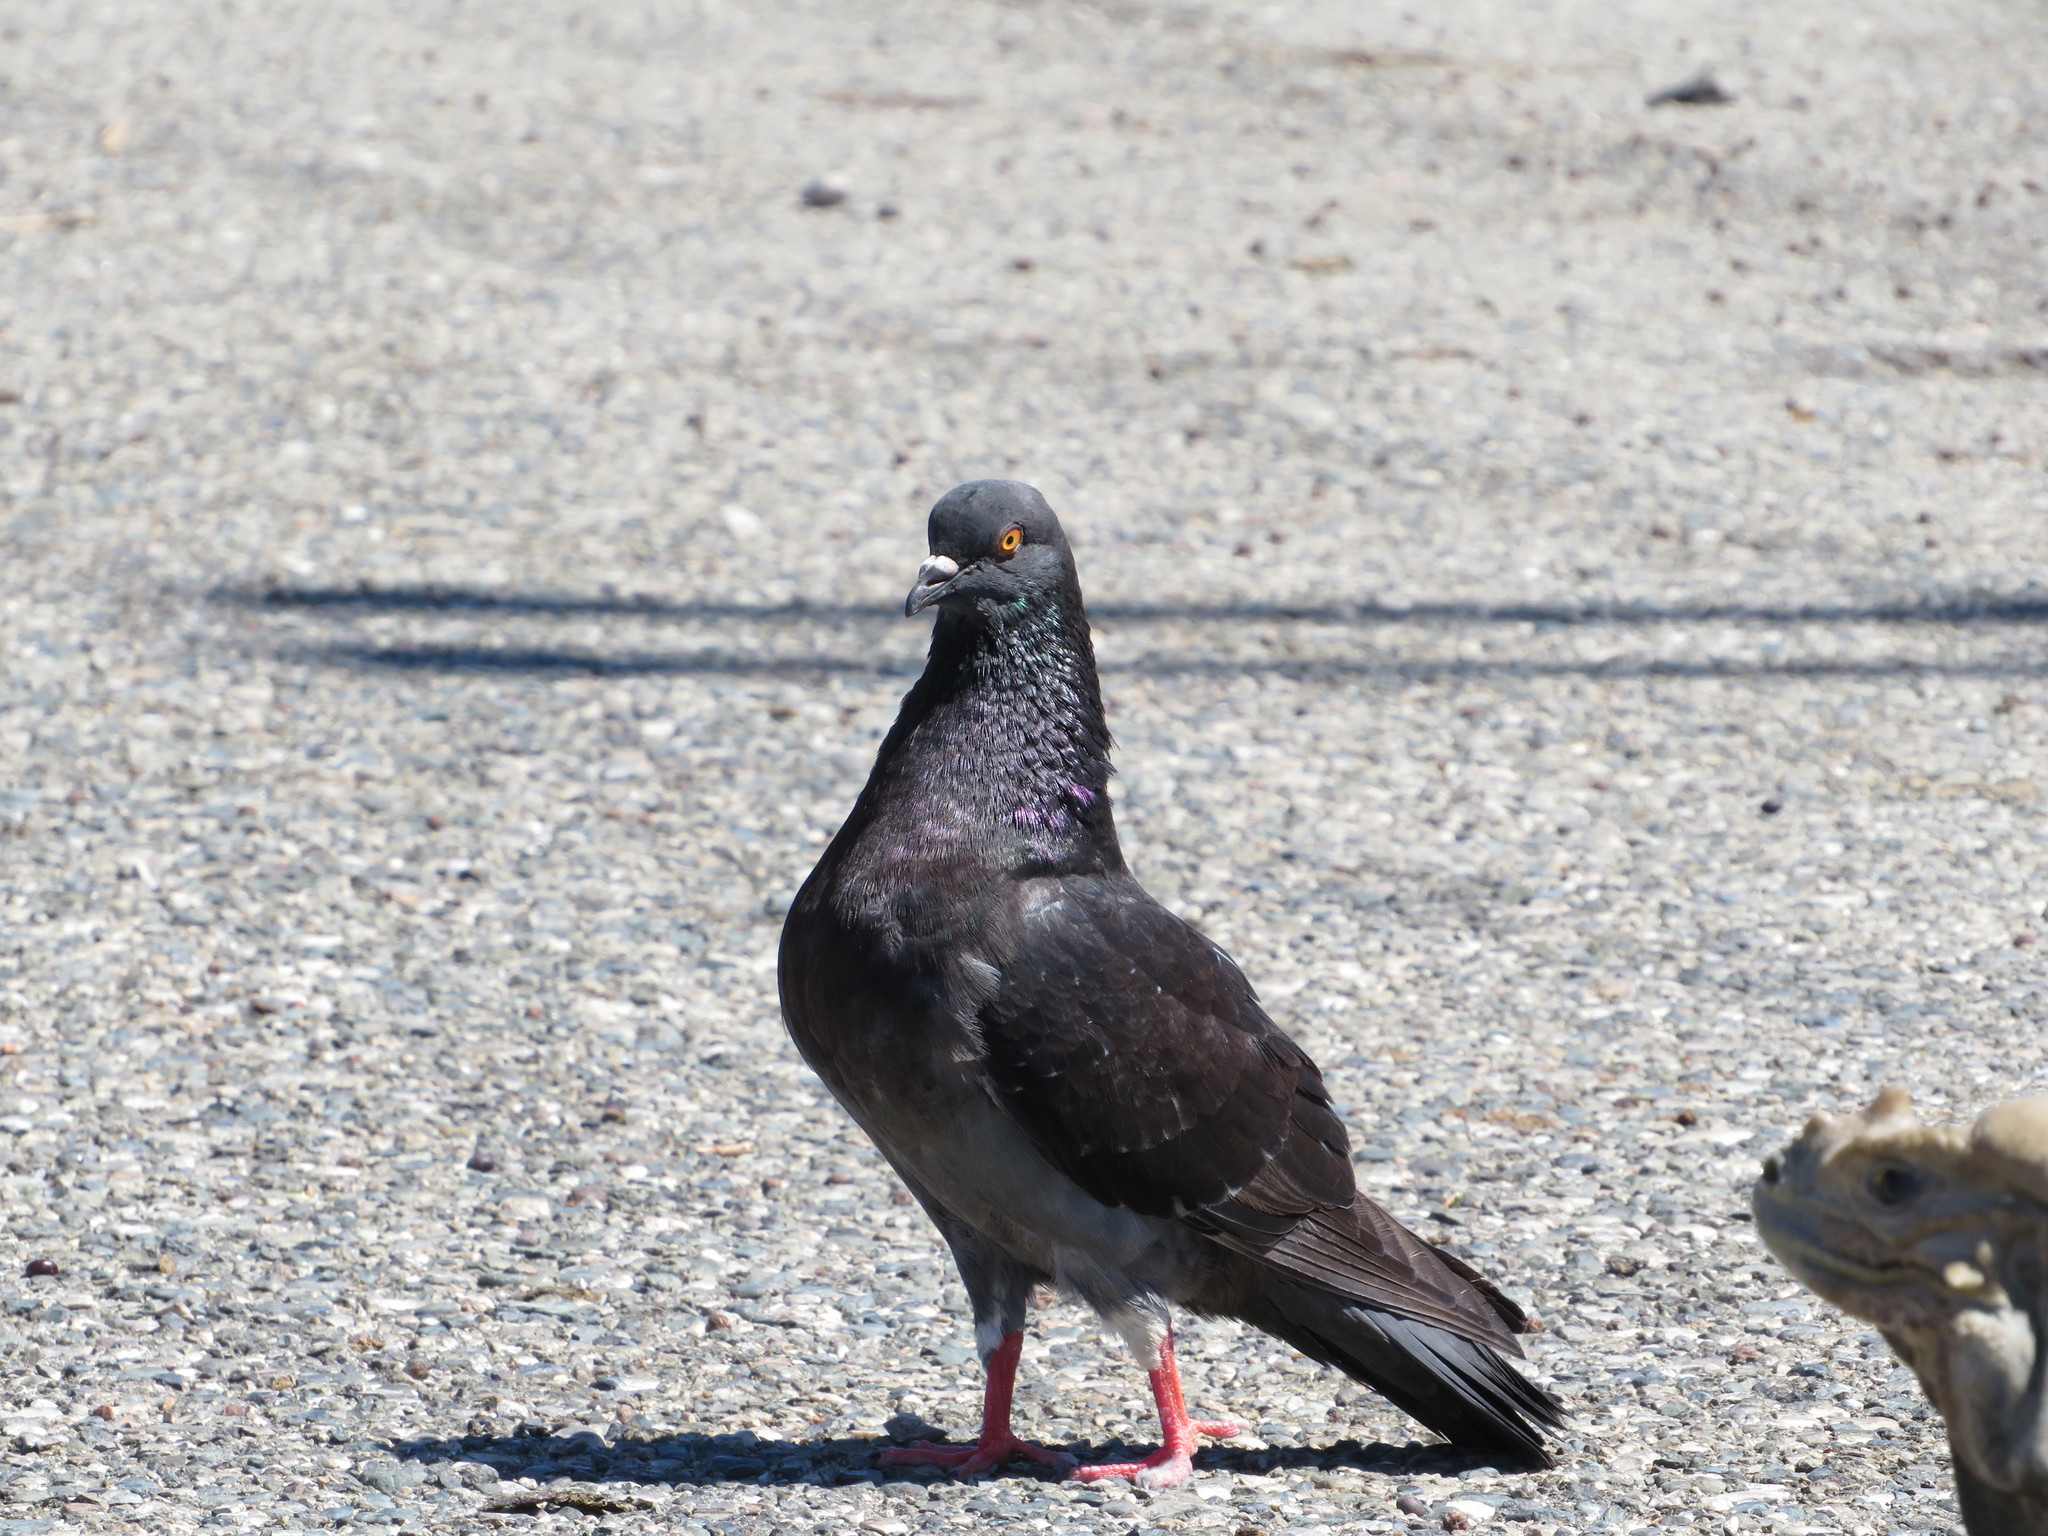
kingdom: Animalia
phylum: Chordata
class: Aves
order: Columbiformes
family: Columbidae
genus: Columba
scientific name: Columba livia
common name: Rock pigeon
